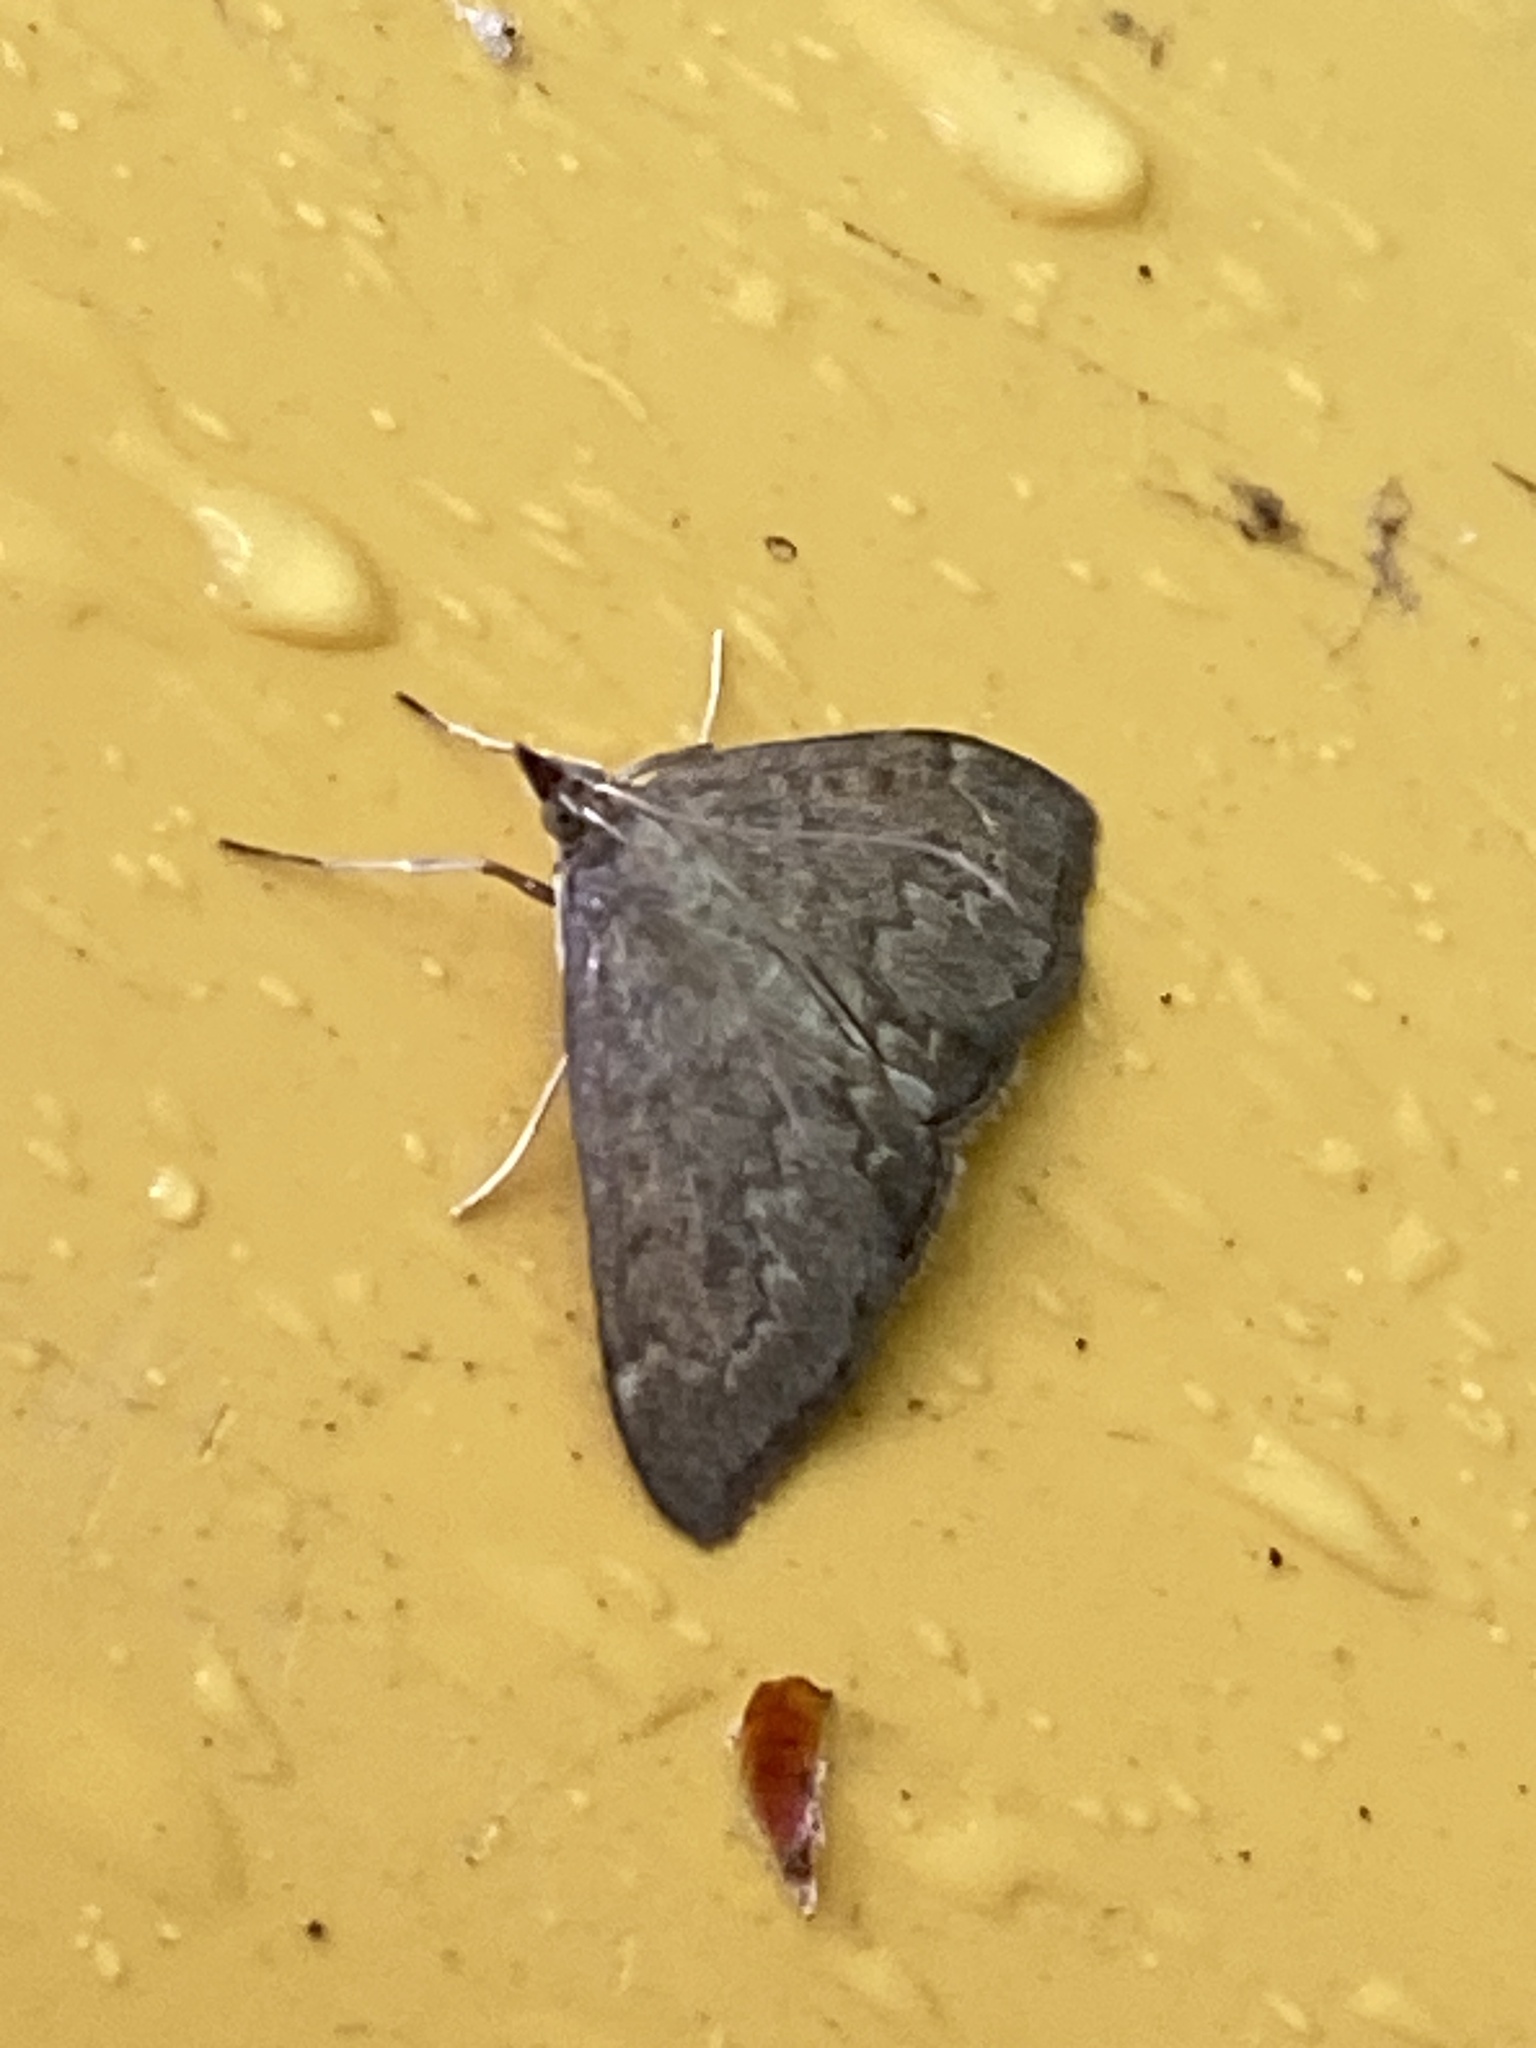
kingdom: Animalia
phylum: Arthropoda
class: Insecta
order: Lepidoptera
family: Crambidae
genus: Anania
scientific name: Anania fuscalis
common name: Cinerous pearl
